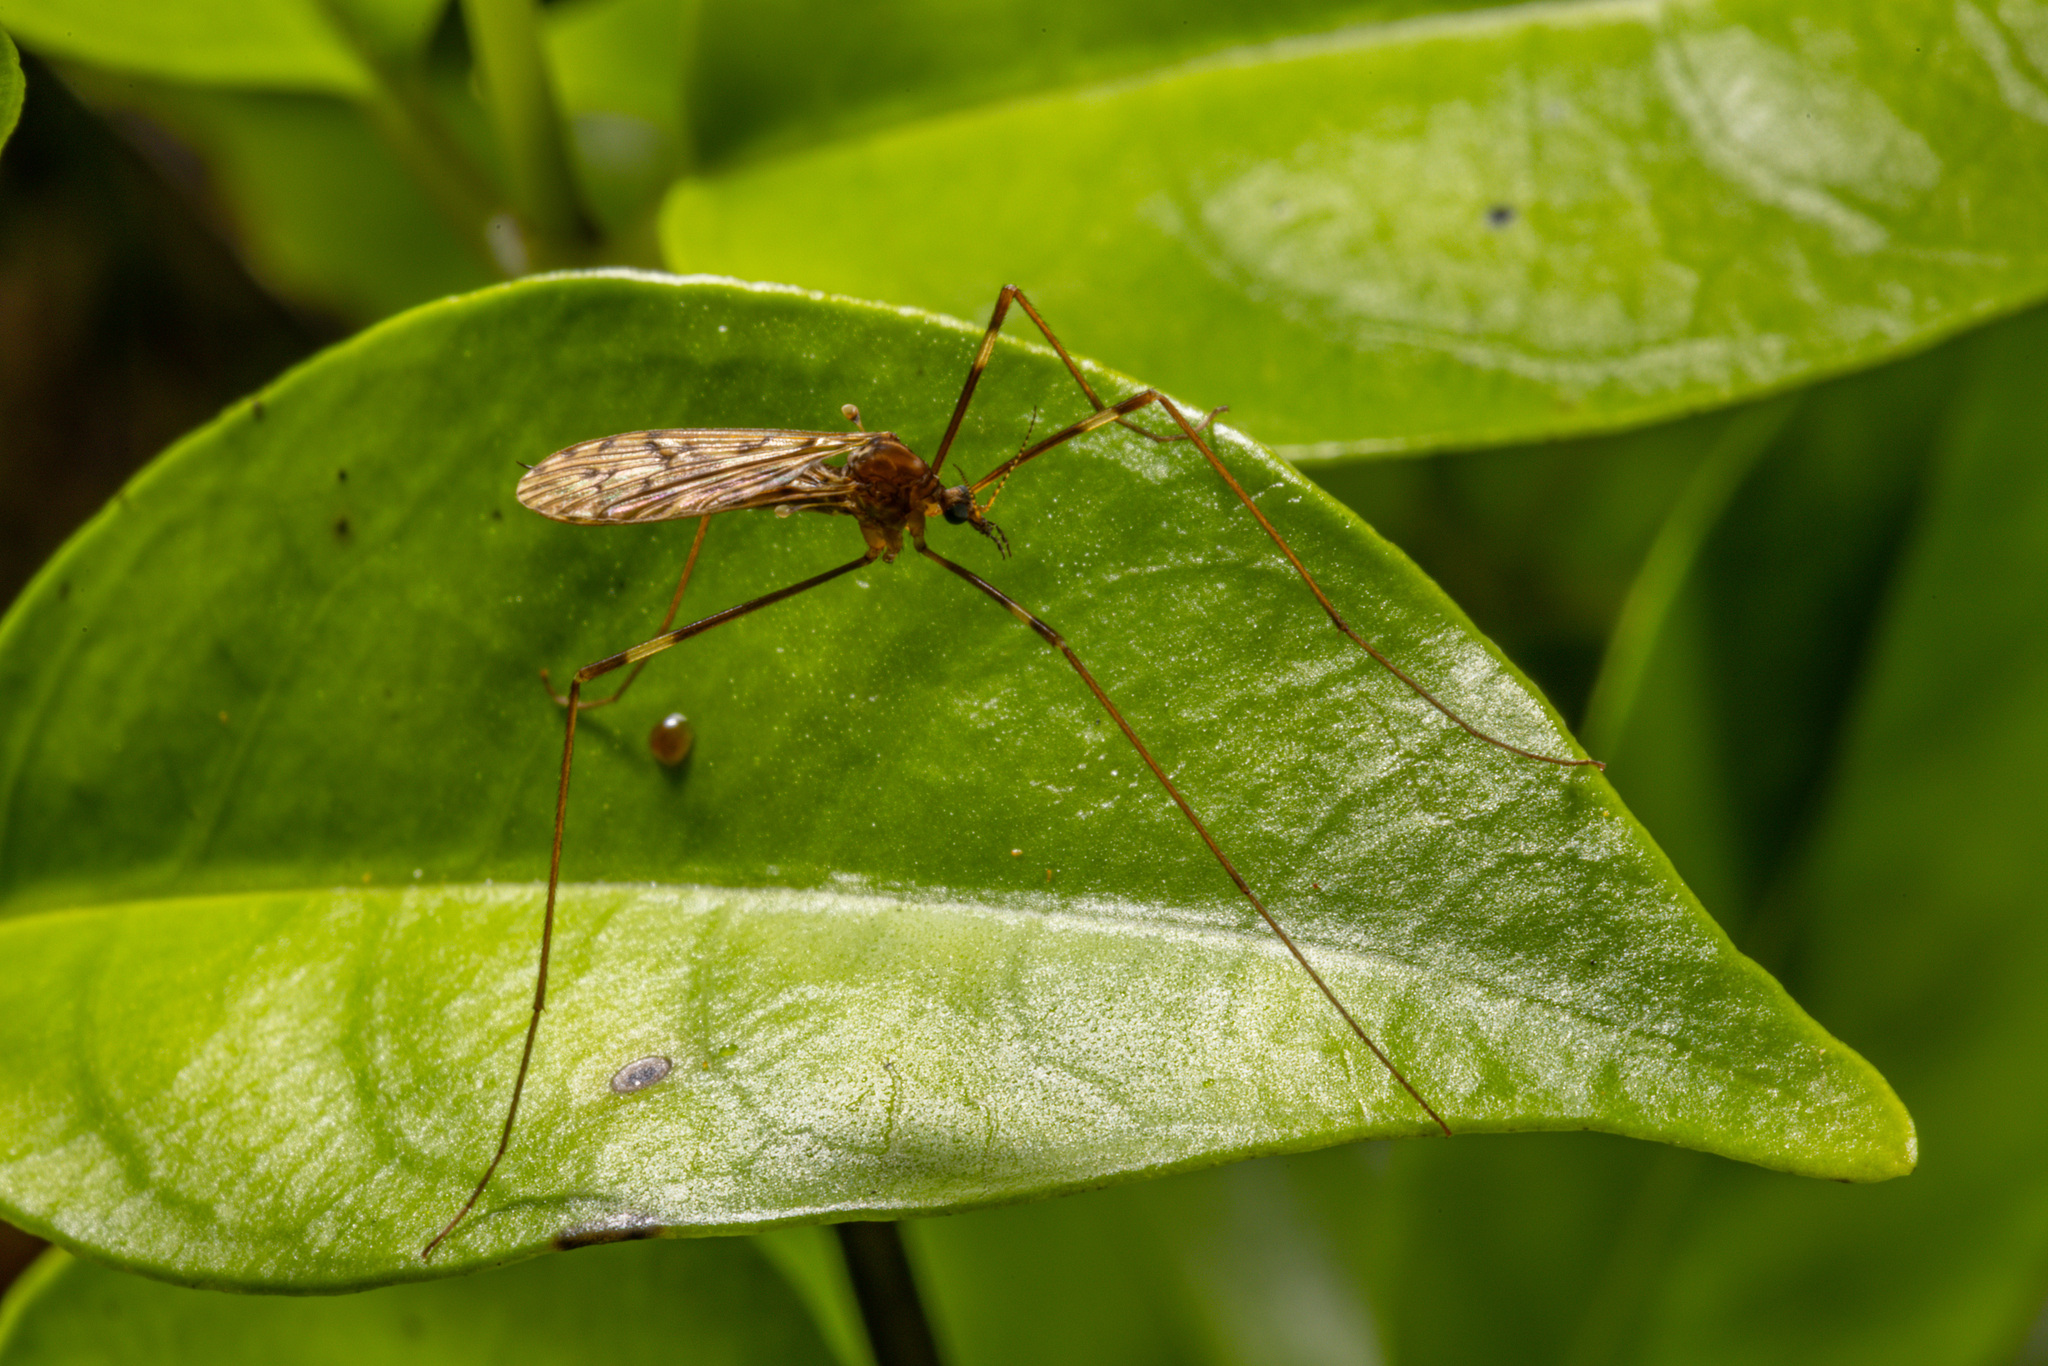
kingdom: Animalia
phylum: Arthropoda
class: Insecta
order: Diptera
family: Limoniidae
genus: Austrolimnophila
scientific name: Austrolimnophila agathicola
